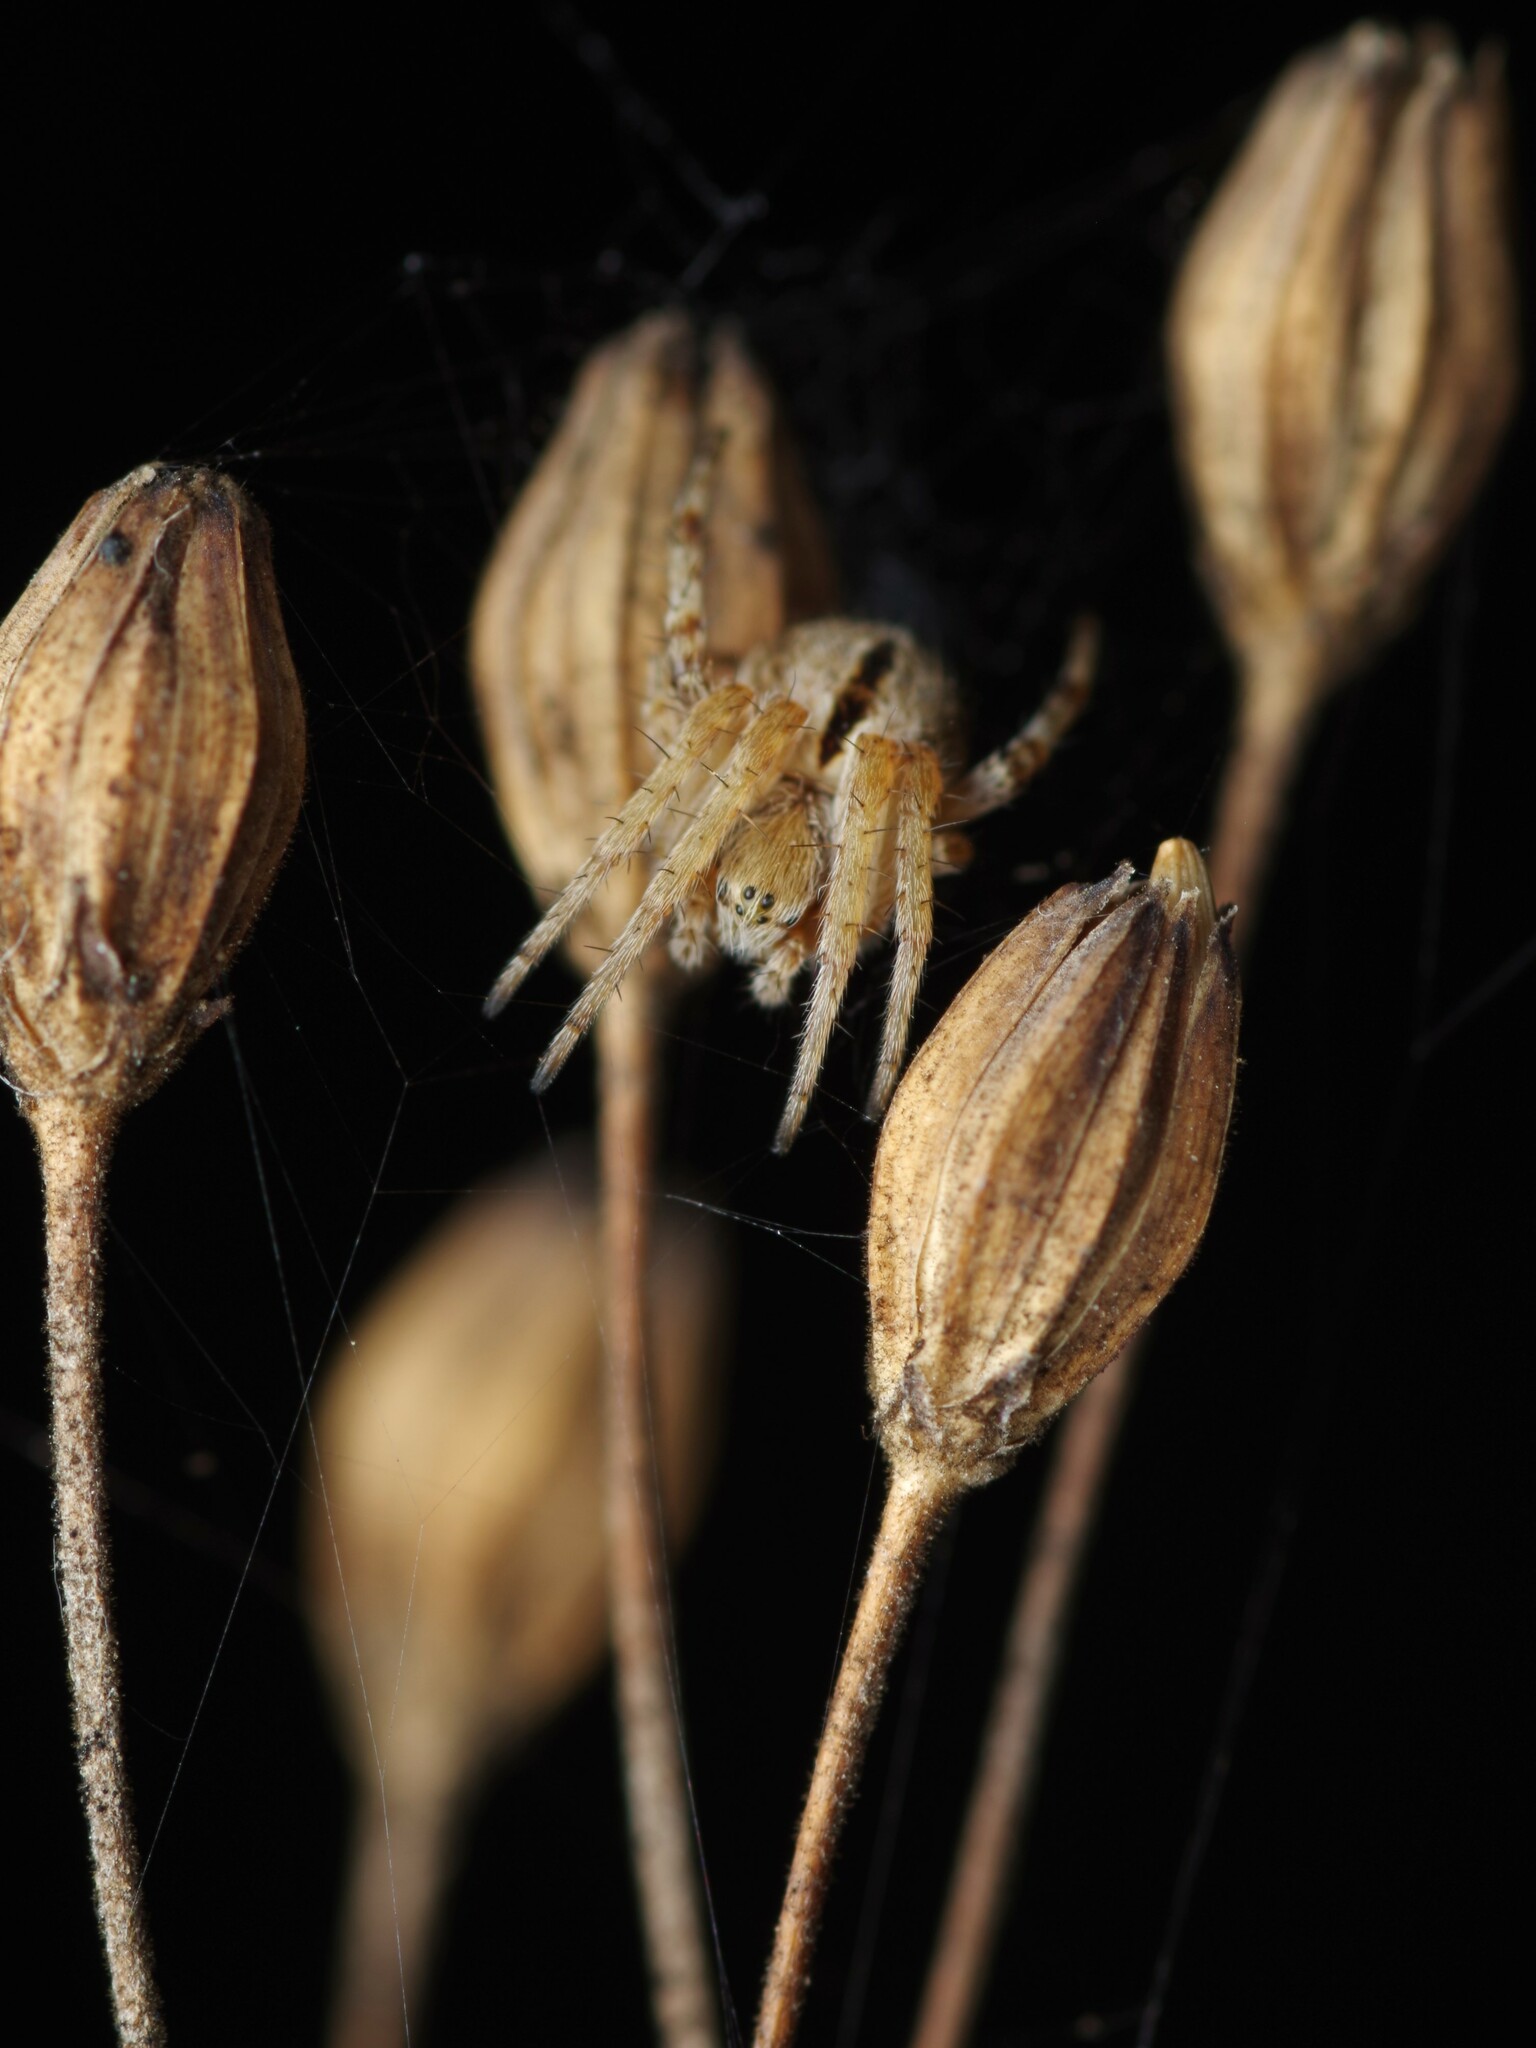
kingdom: Animalia
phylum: Arthropoda
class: Arachnida
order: Araneae
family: Araneidae
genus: Agalenatea
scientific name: Agalenatea redii
